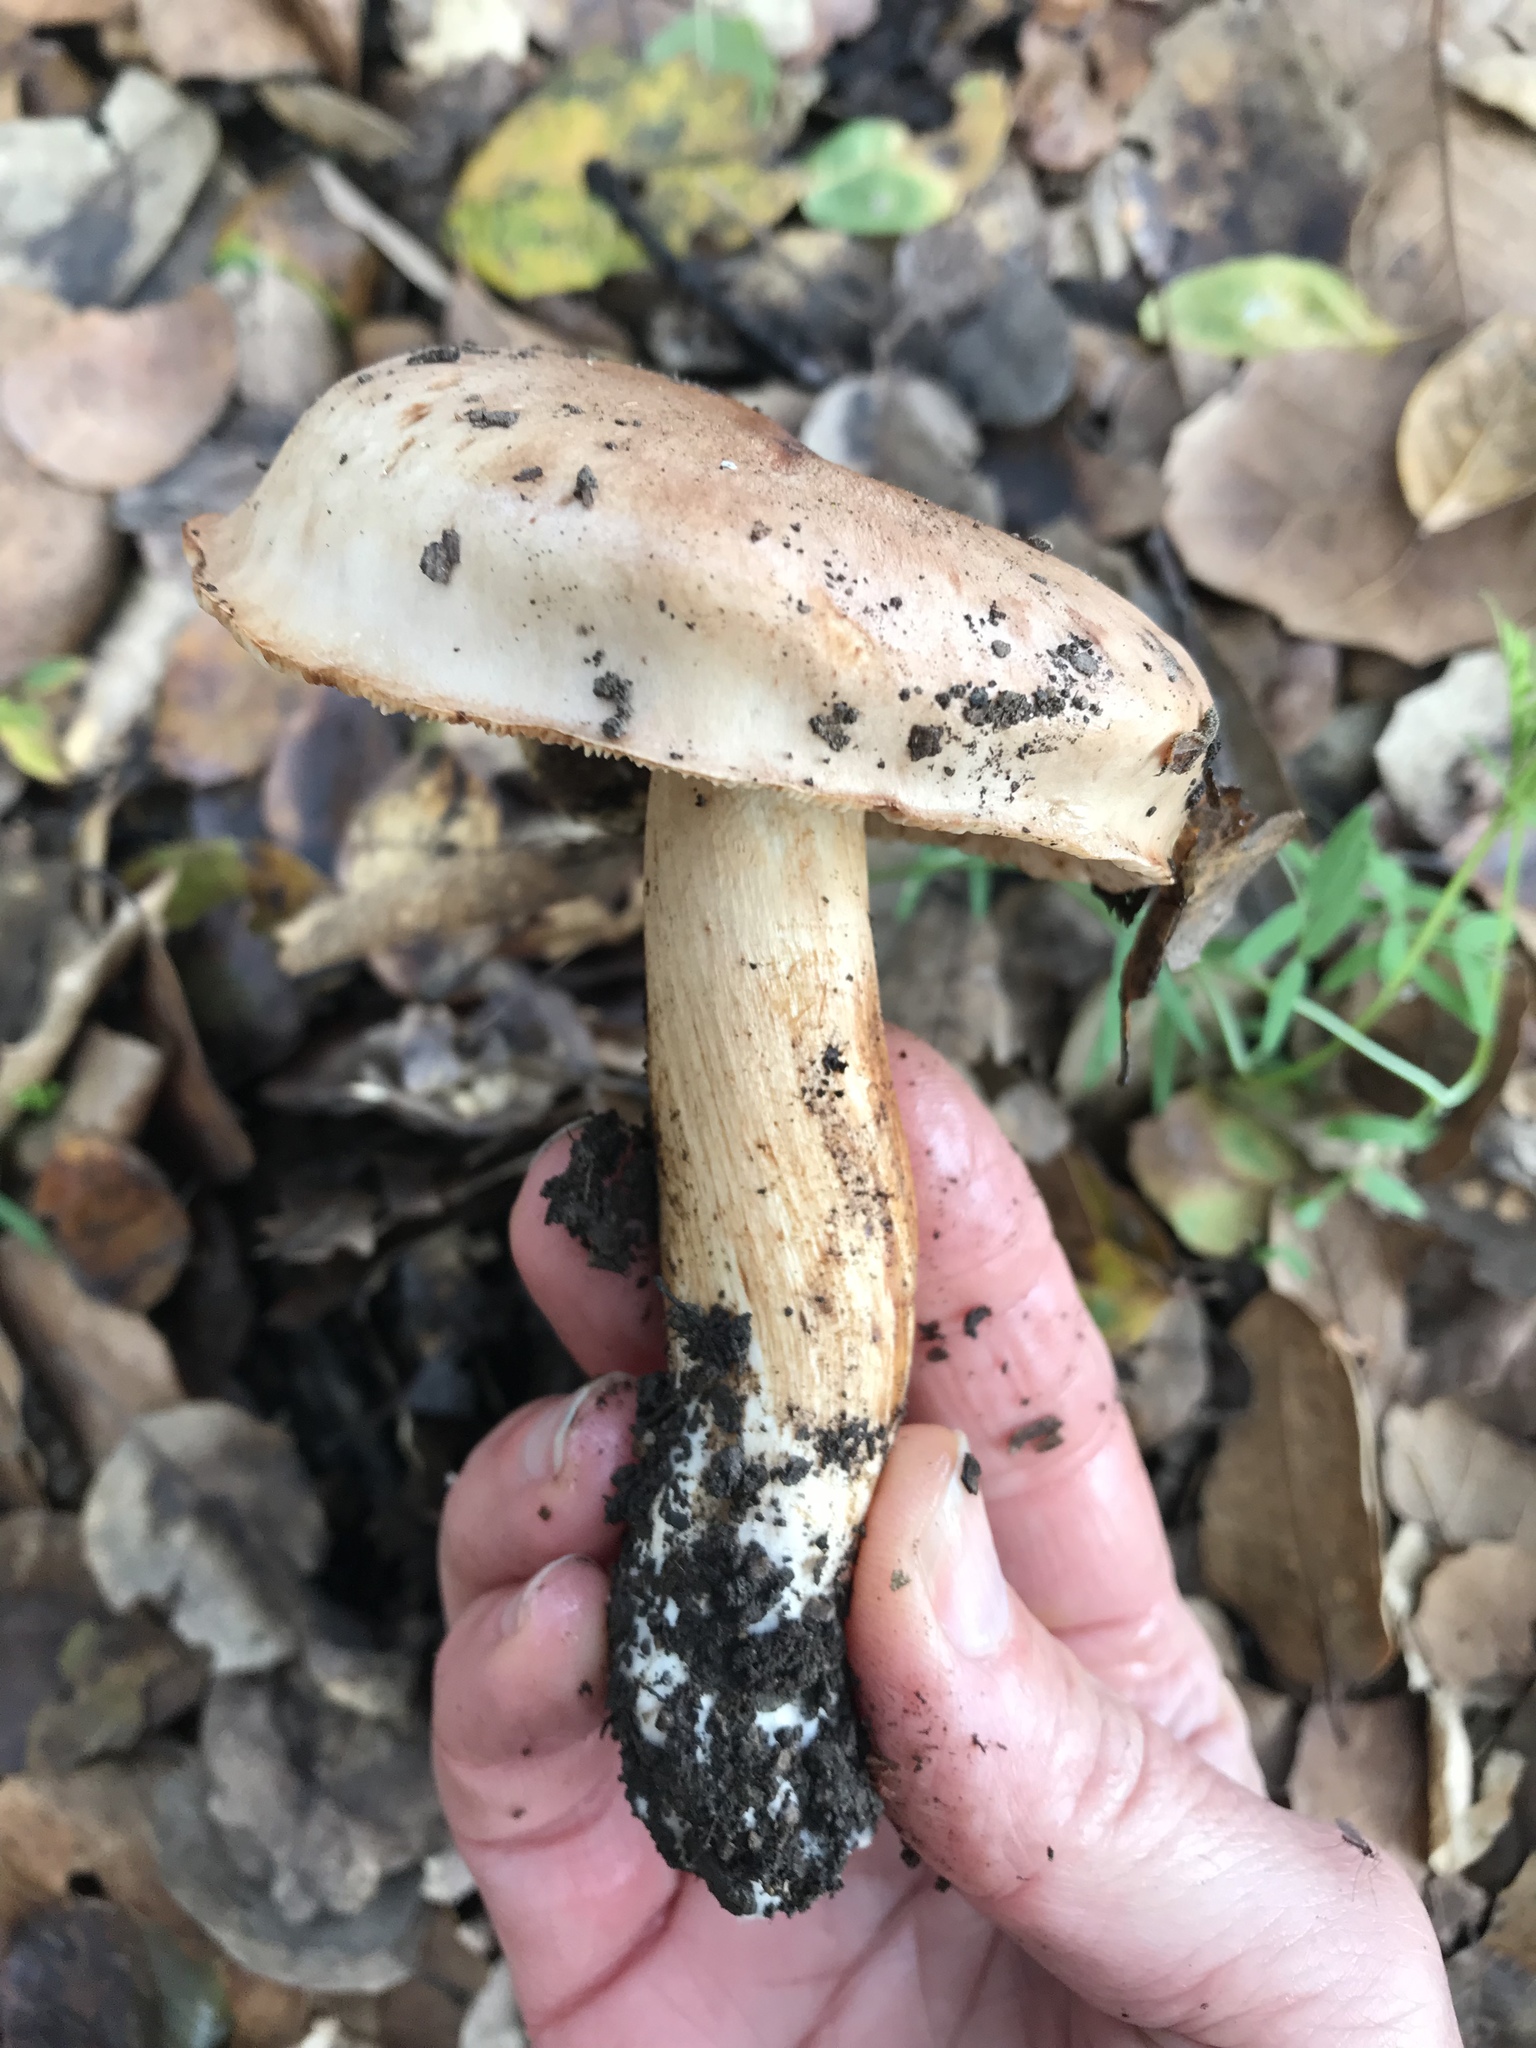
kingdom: Fungi
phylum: Basidiomycota
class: Agaricomycetes
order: Agaricales
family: Tricholomataceae
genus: Melanoleuca
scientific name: Melanoleuca dryophila
